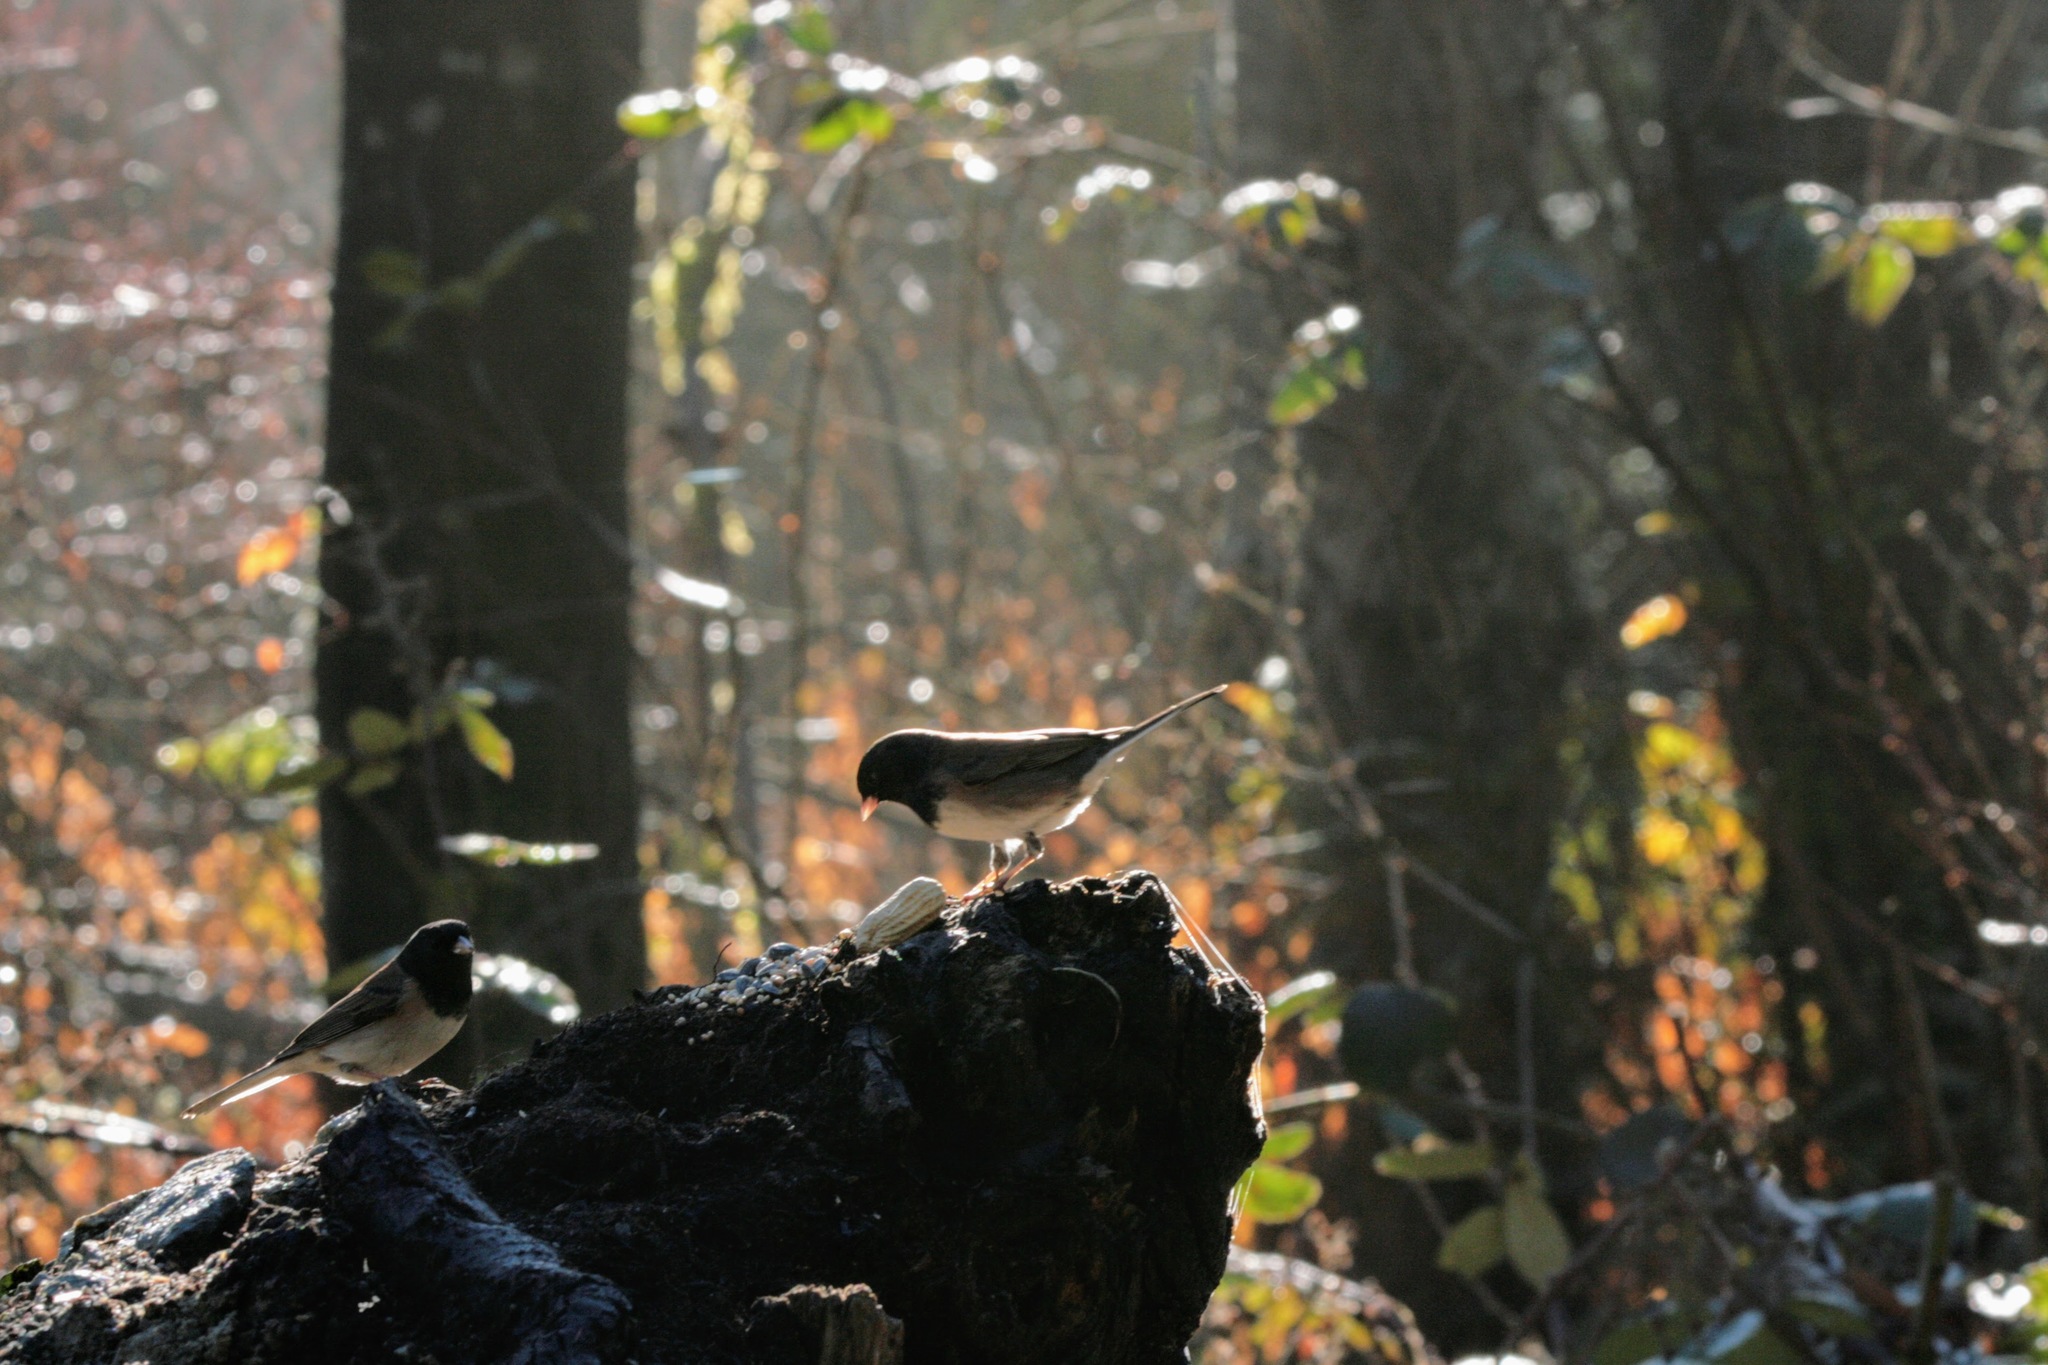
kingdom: Animalia
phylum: Chordata
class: Aves
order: Passeriformes
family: Passerellidae
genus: Junco
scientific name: Junco hyemalis
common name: Dark-eyed junco
